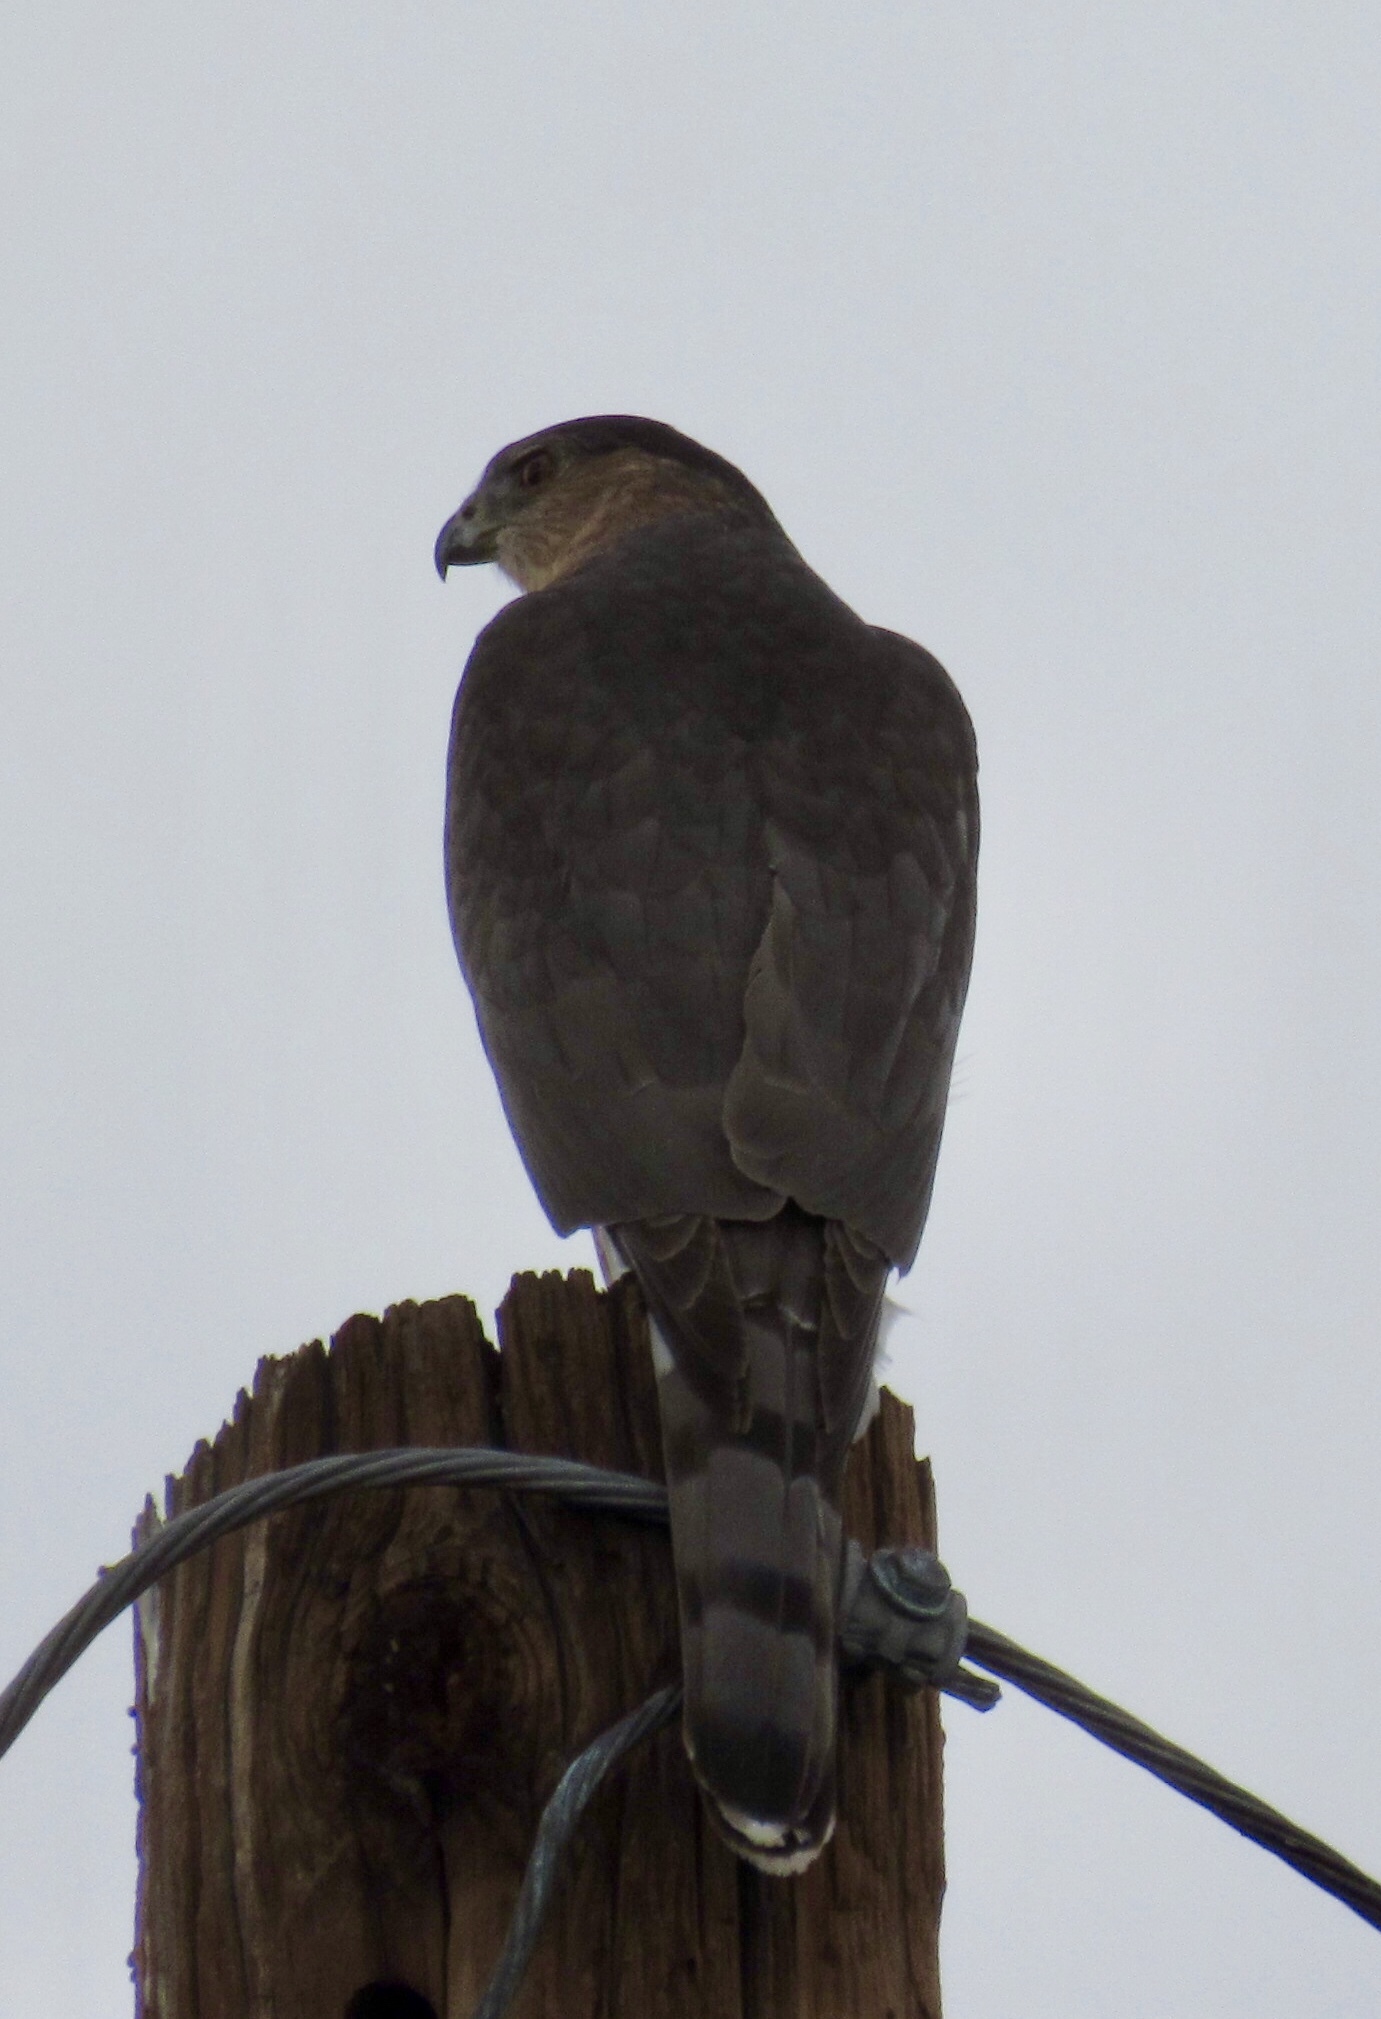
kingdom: Animalia
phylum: Chordata
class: Aves
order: Accipitriformes
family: Accipitridae
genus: Accipiter
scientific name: Accipiter cooperii
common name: Cooper's hawk
